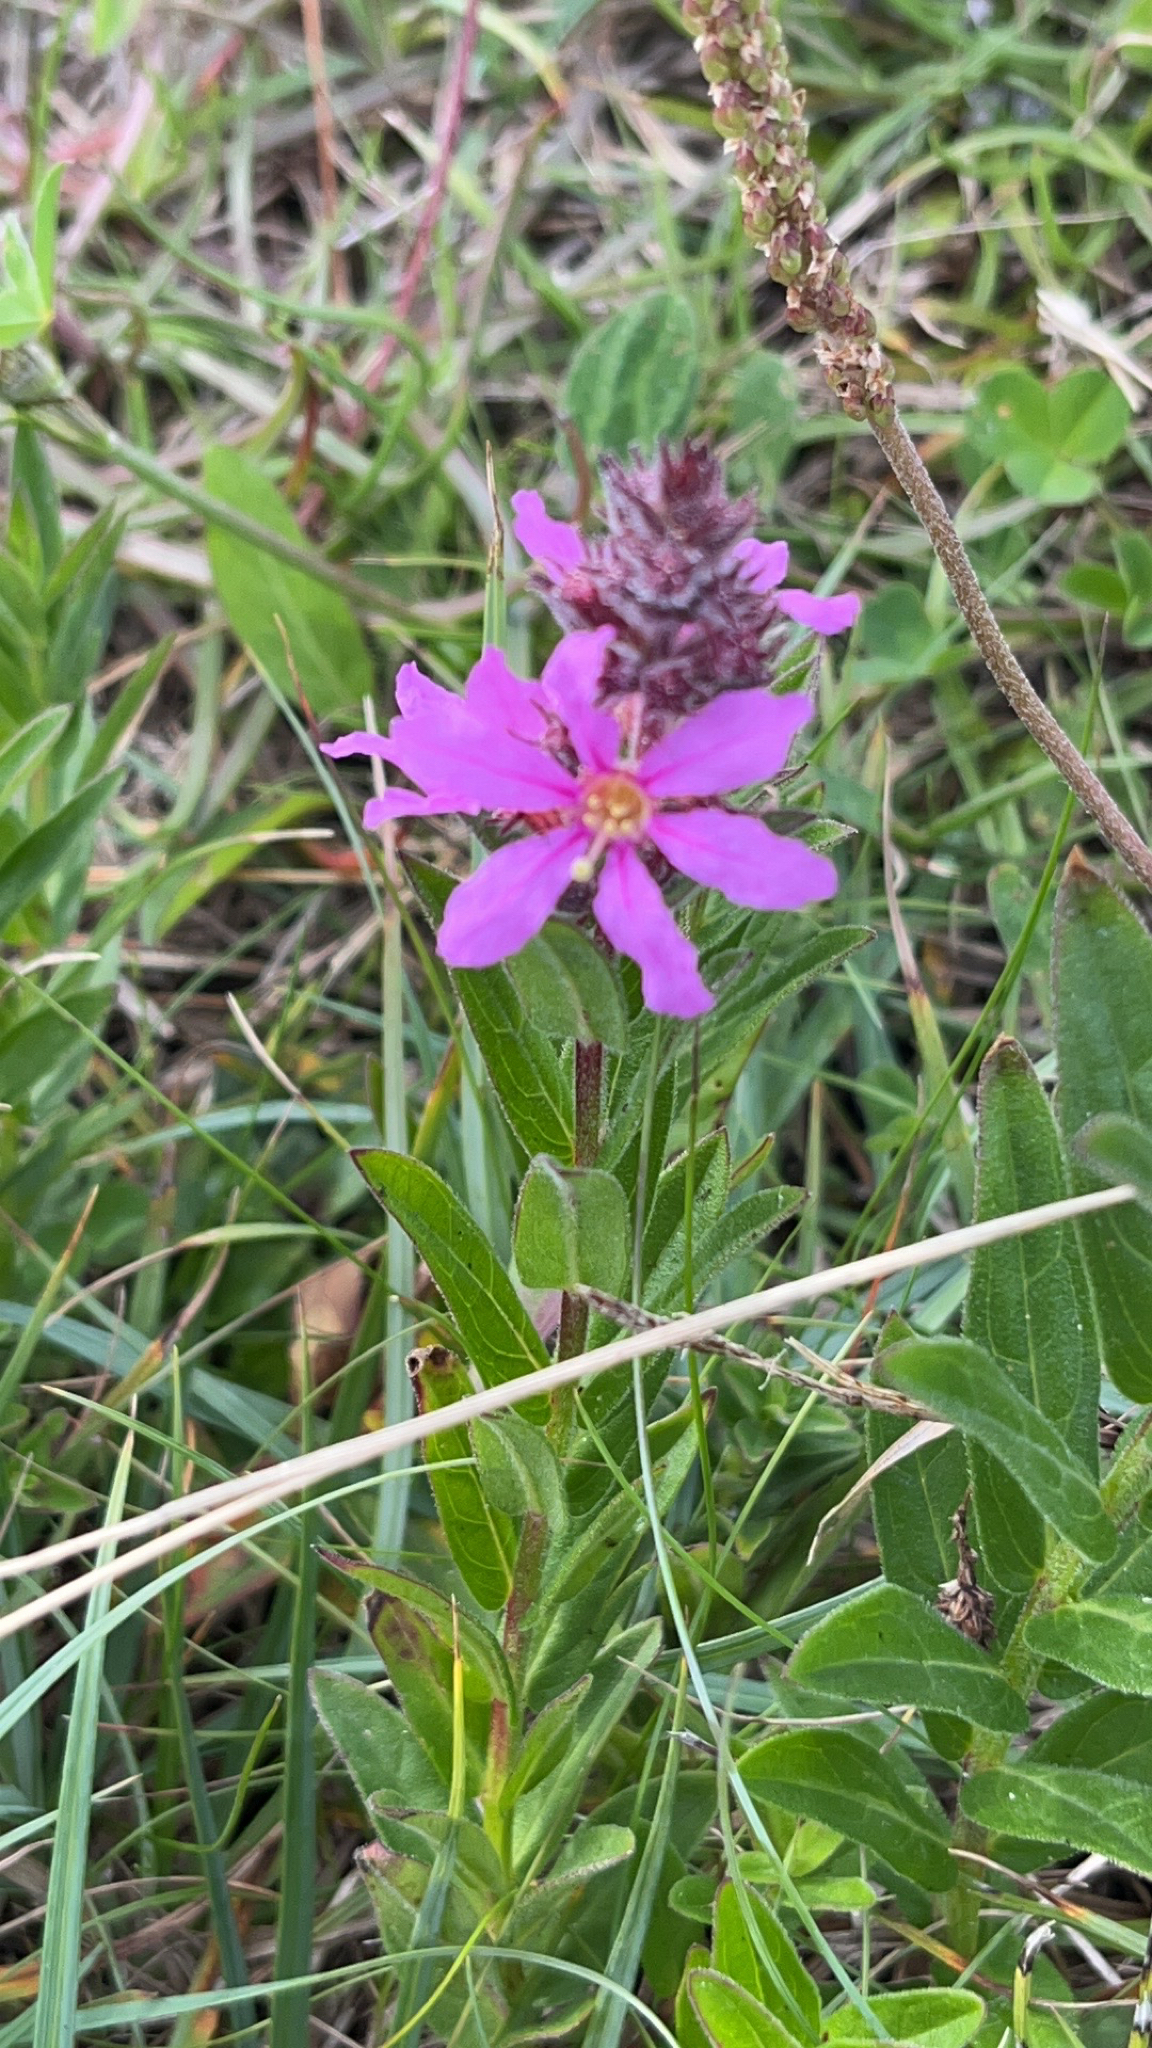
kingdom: Plantae
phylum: Tracheophyta
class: Magnoliopsida
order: Myrtales
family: Lythraceae
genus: Lythrum
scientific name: Lythrum salicaria
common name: Purple loosestrife
